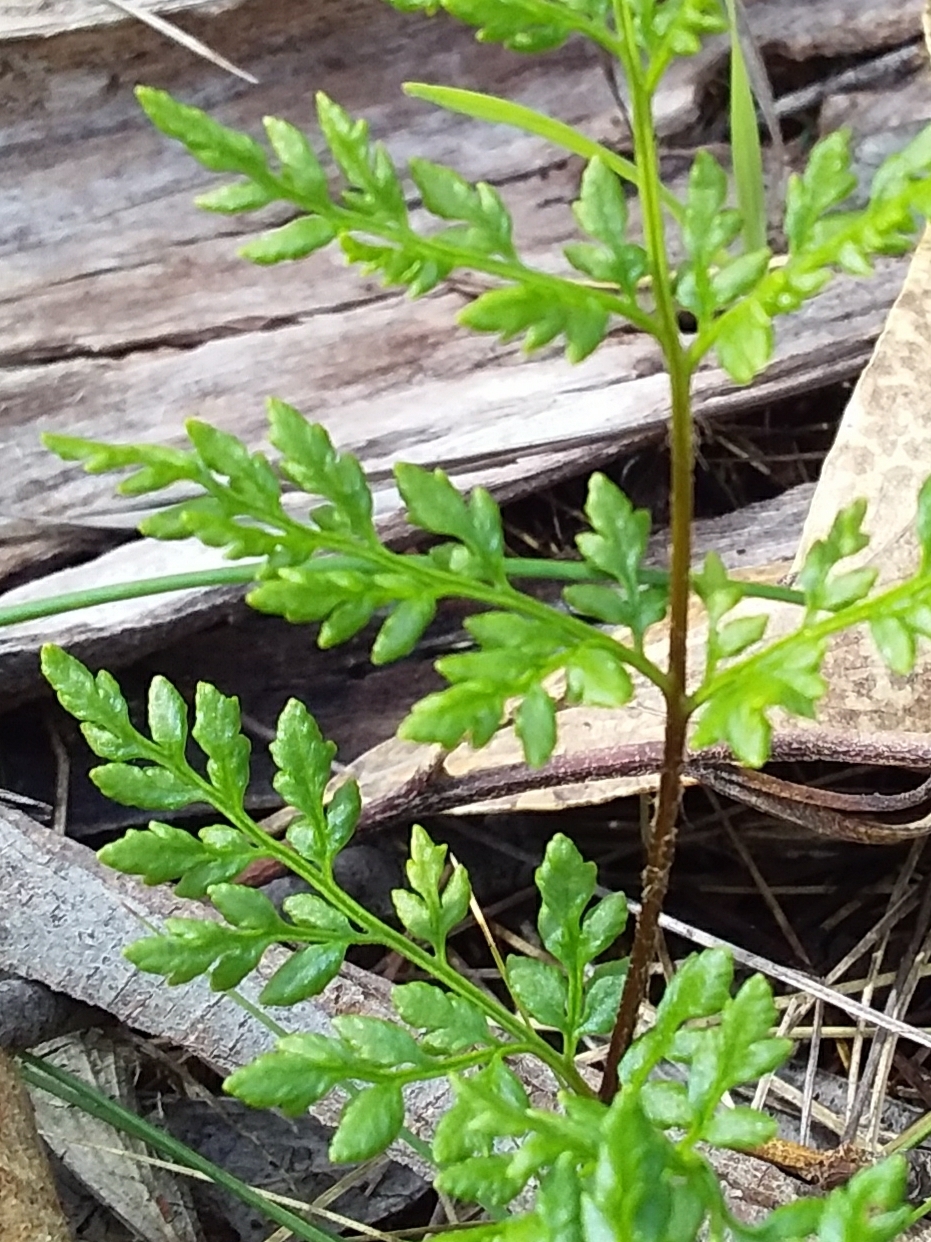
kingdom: Plantae
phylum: Tracheophyta
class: Polypodiopsida
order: Polypodiales
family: Pteridaceae
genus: Cheilanthes
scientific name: Cheilanthes austrotenuifolia
